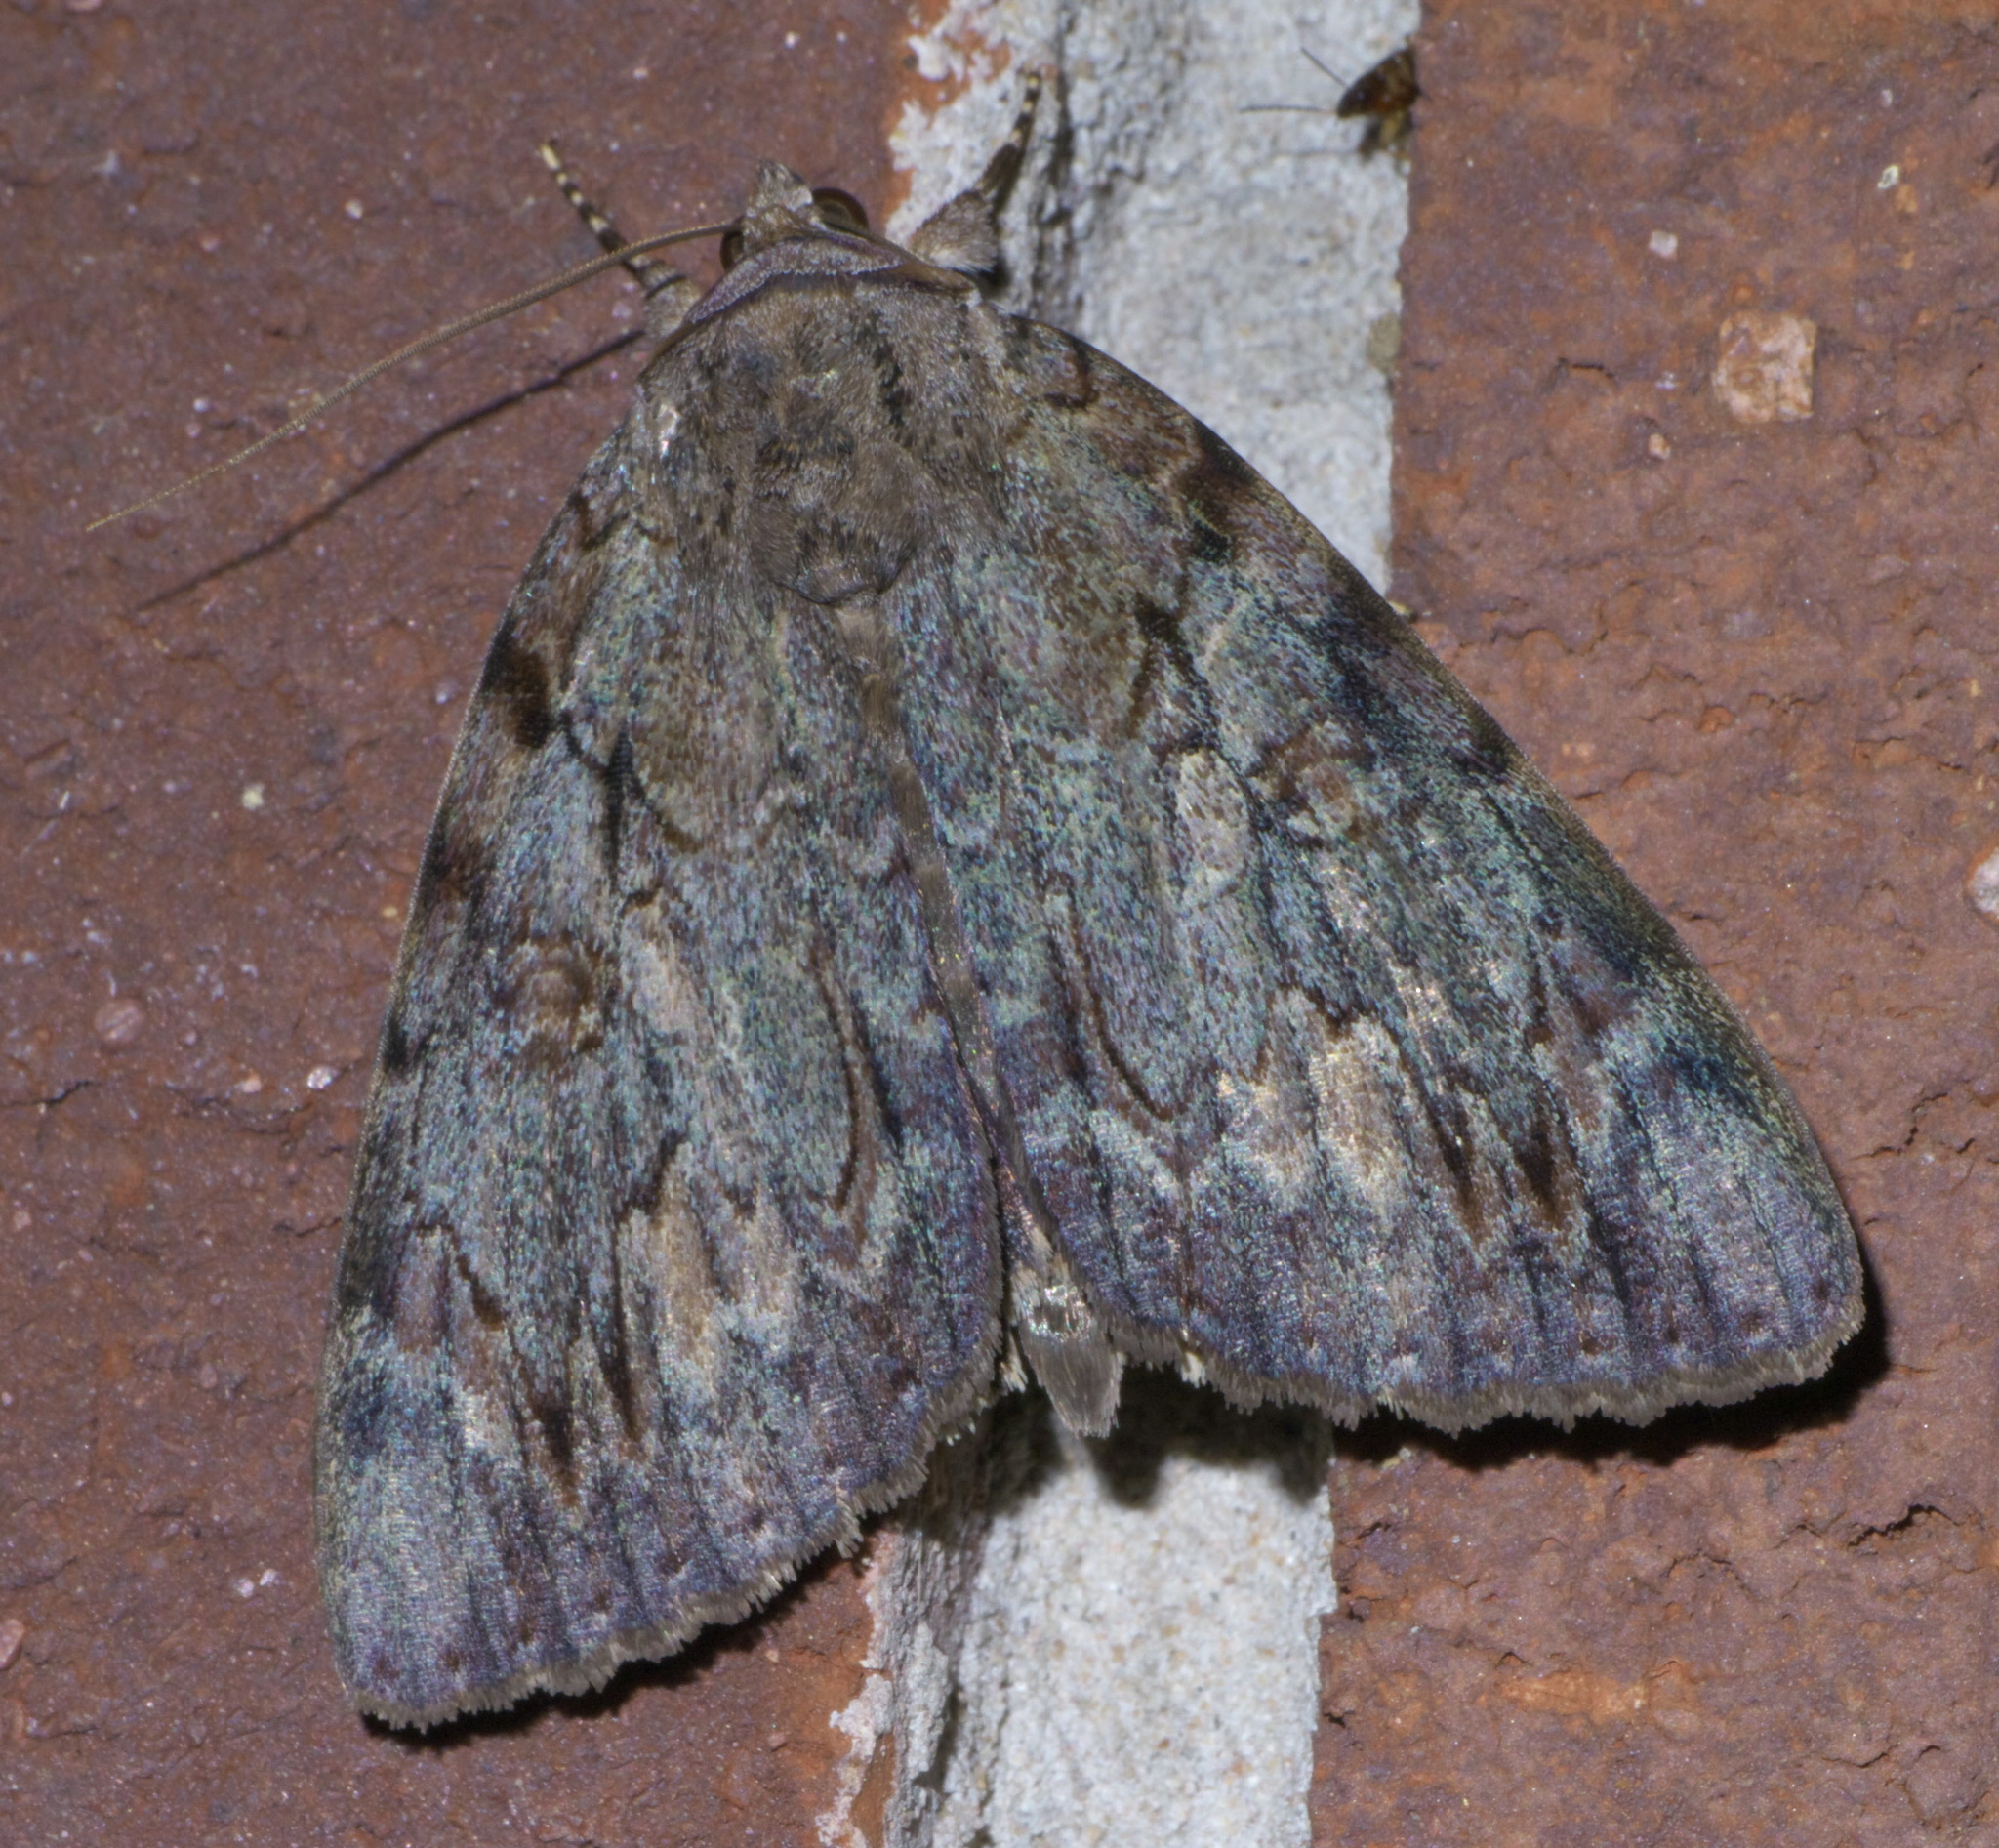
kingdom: Animalia
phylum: Arthropoda
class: Insecta
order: Lepidoptera
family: Erebidae
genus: Catocala
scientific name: Catocala agrippina
